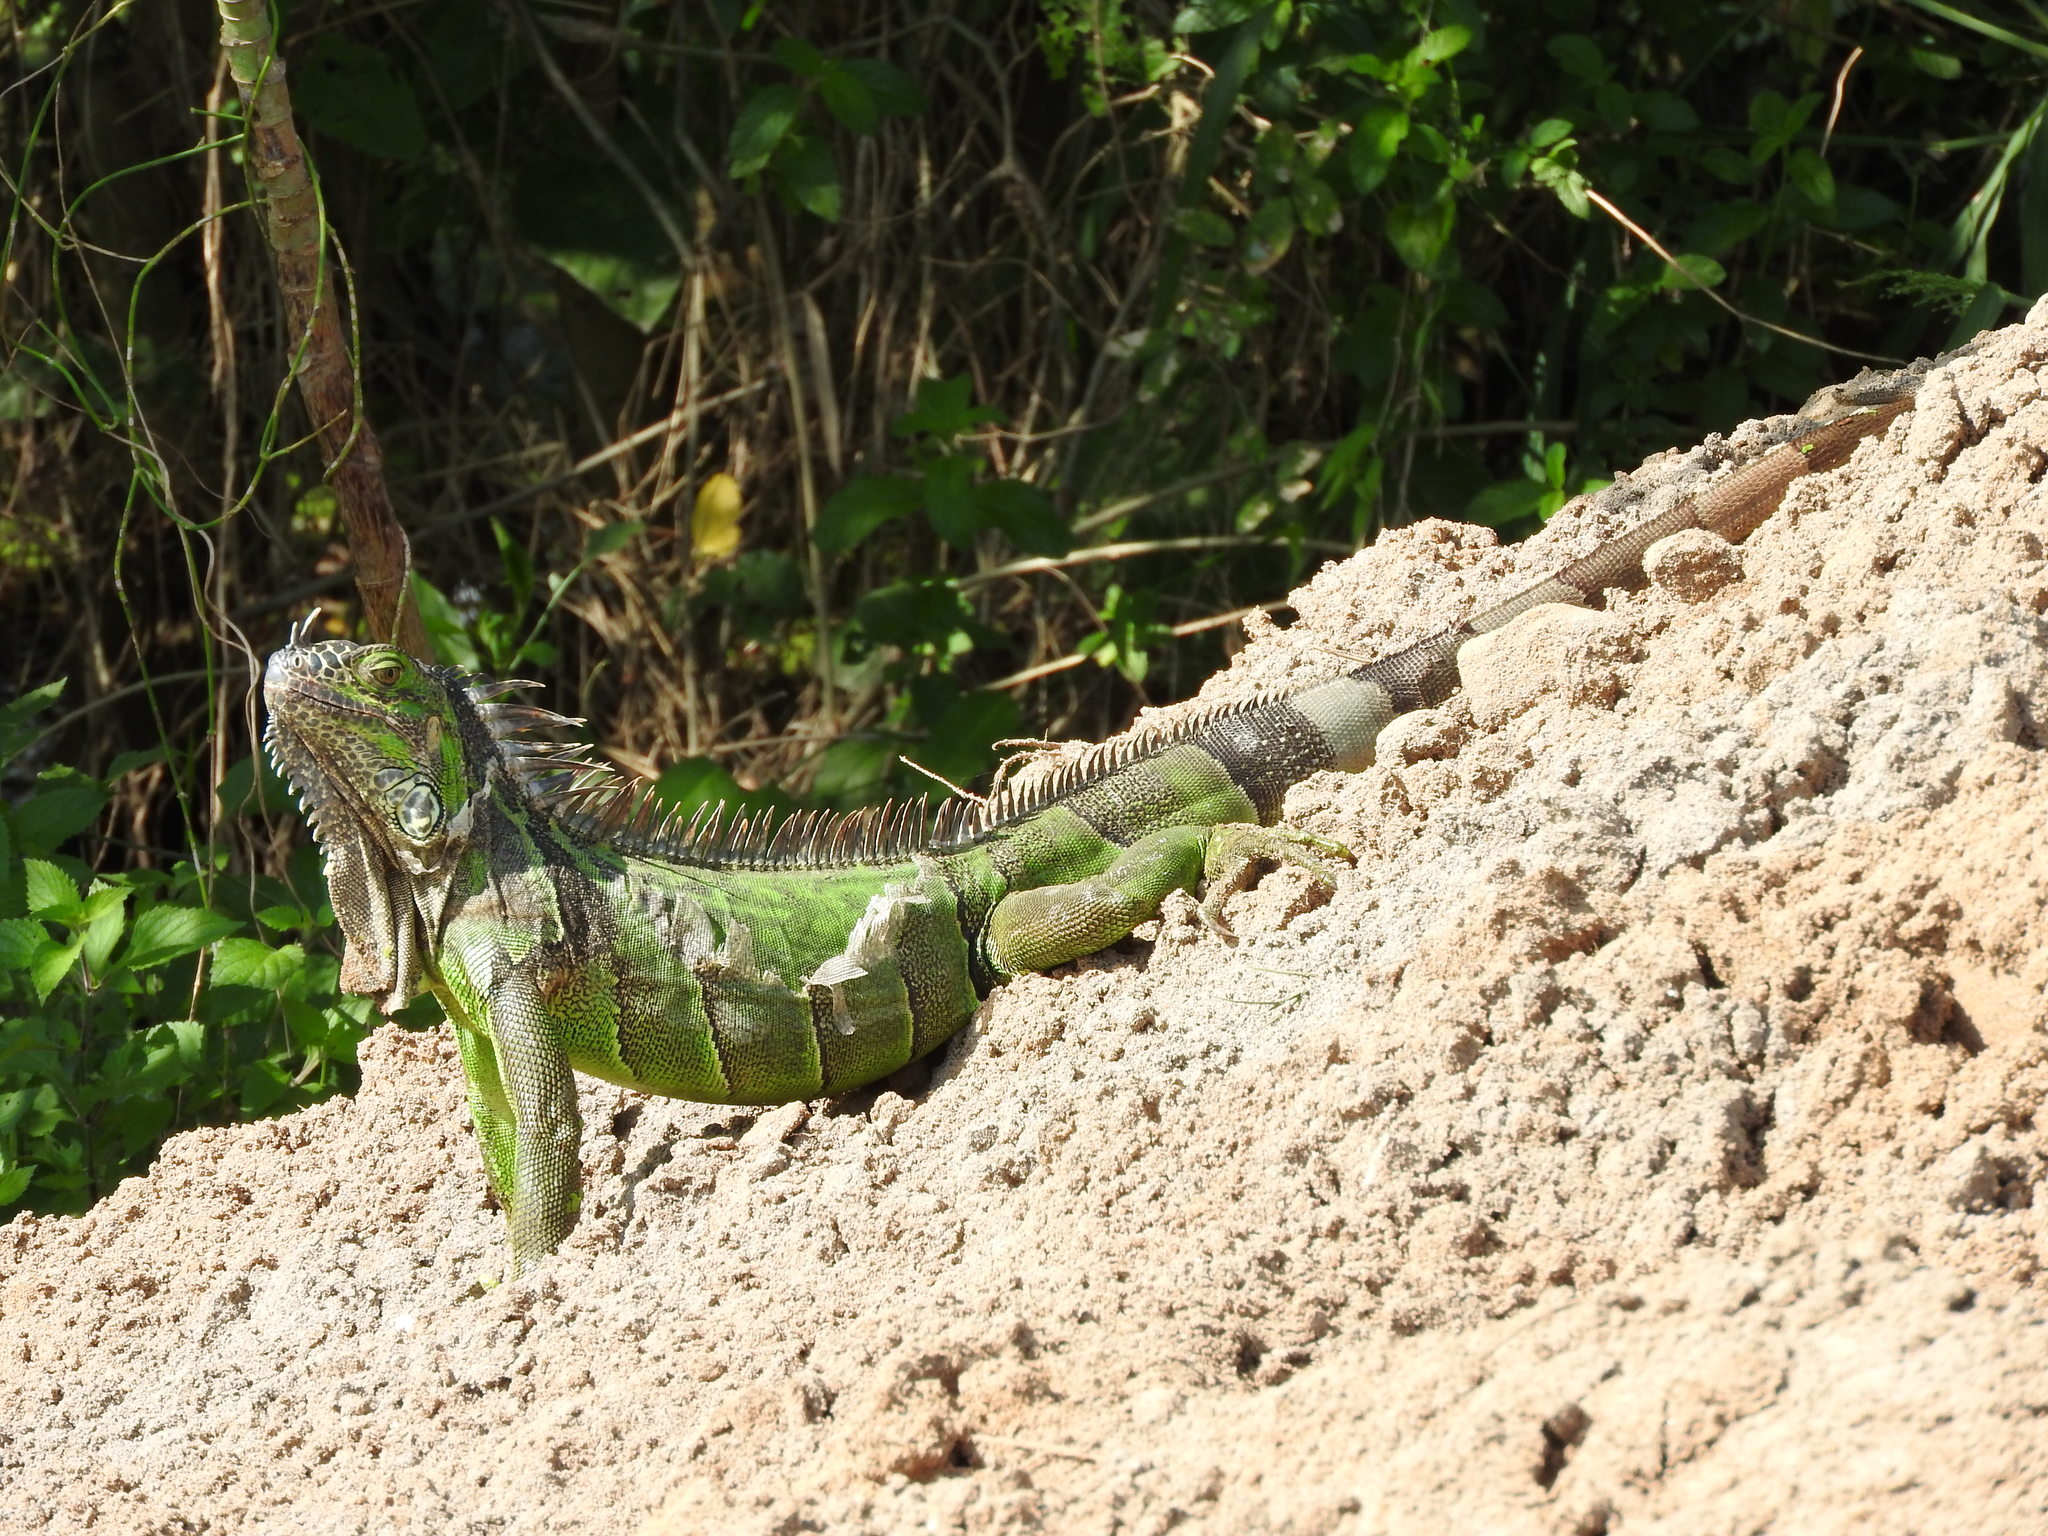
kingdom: Animalia
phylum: Chordata
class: Squamata
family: Iguanidae
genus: Iguana
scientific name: Iguana iguana
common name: Green iguana
